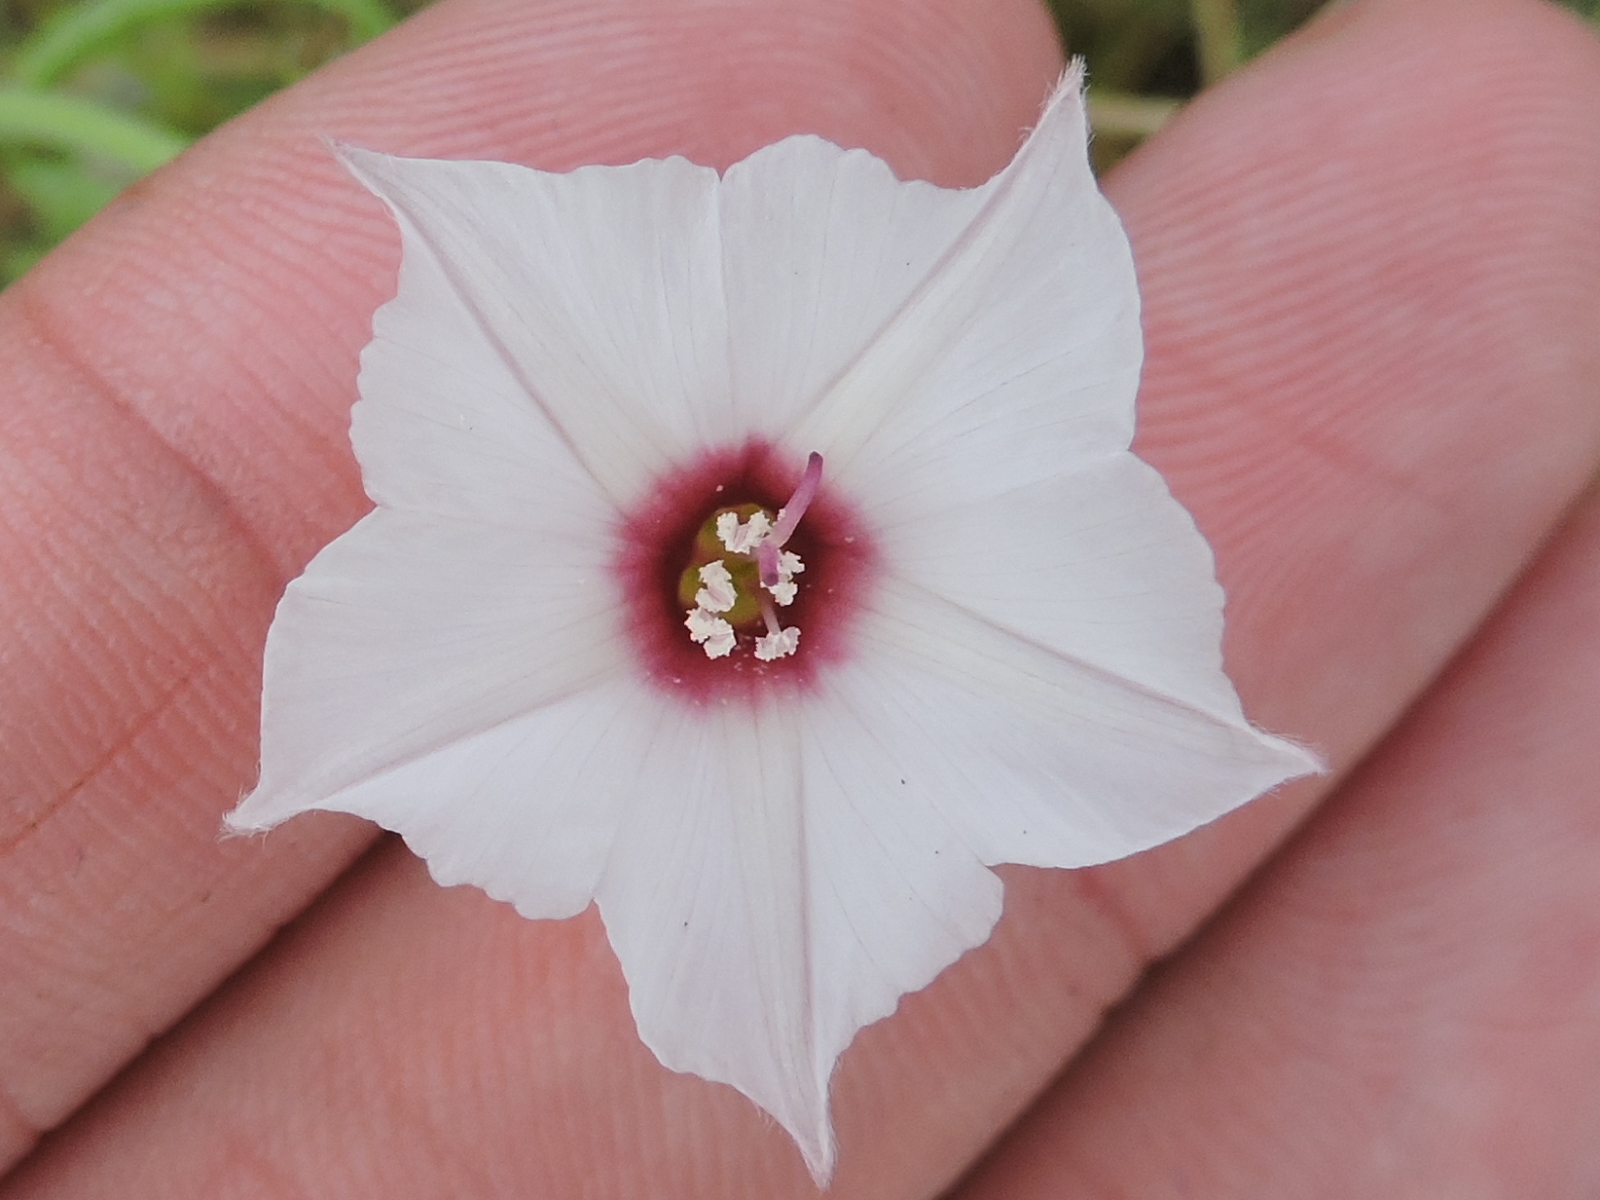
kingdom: Plantae
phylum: Tracheophyta
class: Magnoliopsida
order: Solanales
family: Convolvulaceae
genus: Convolvulus
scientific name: Convolvulus equitans
